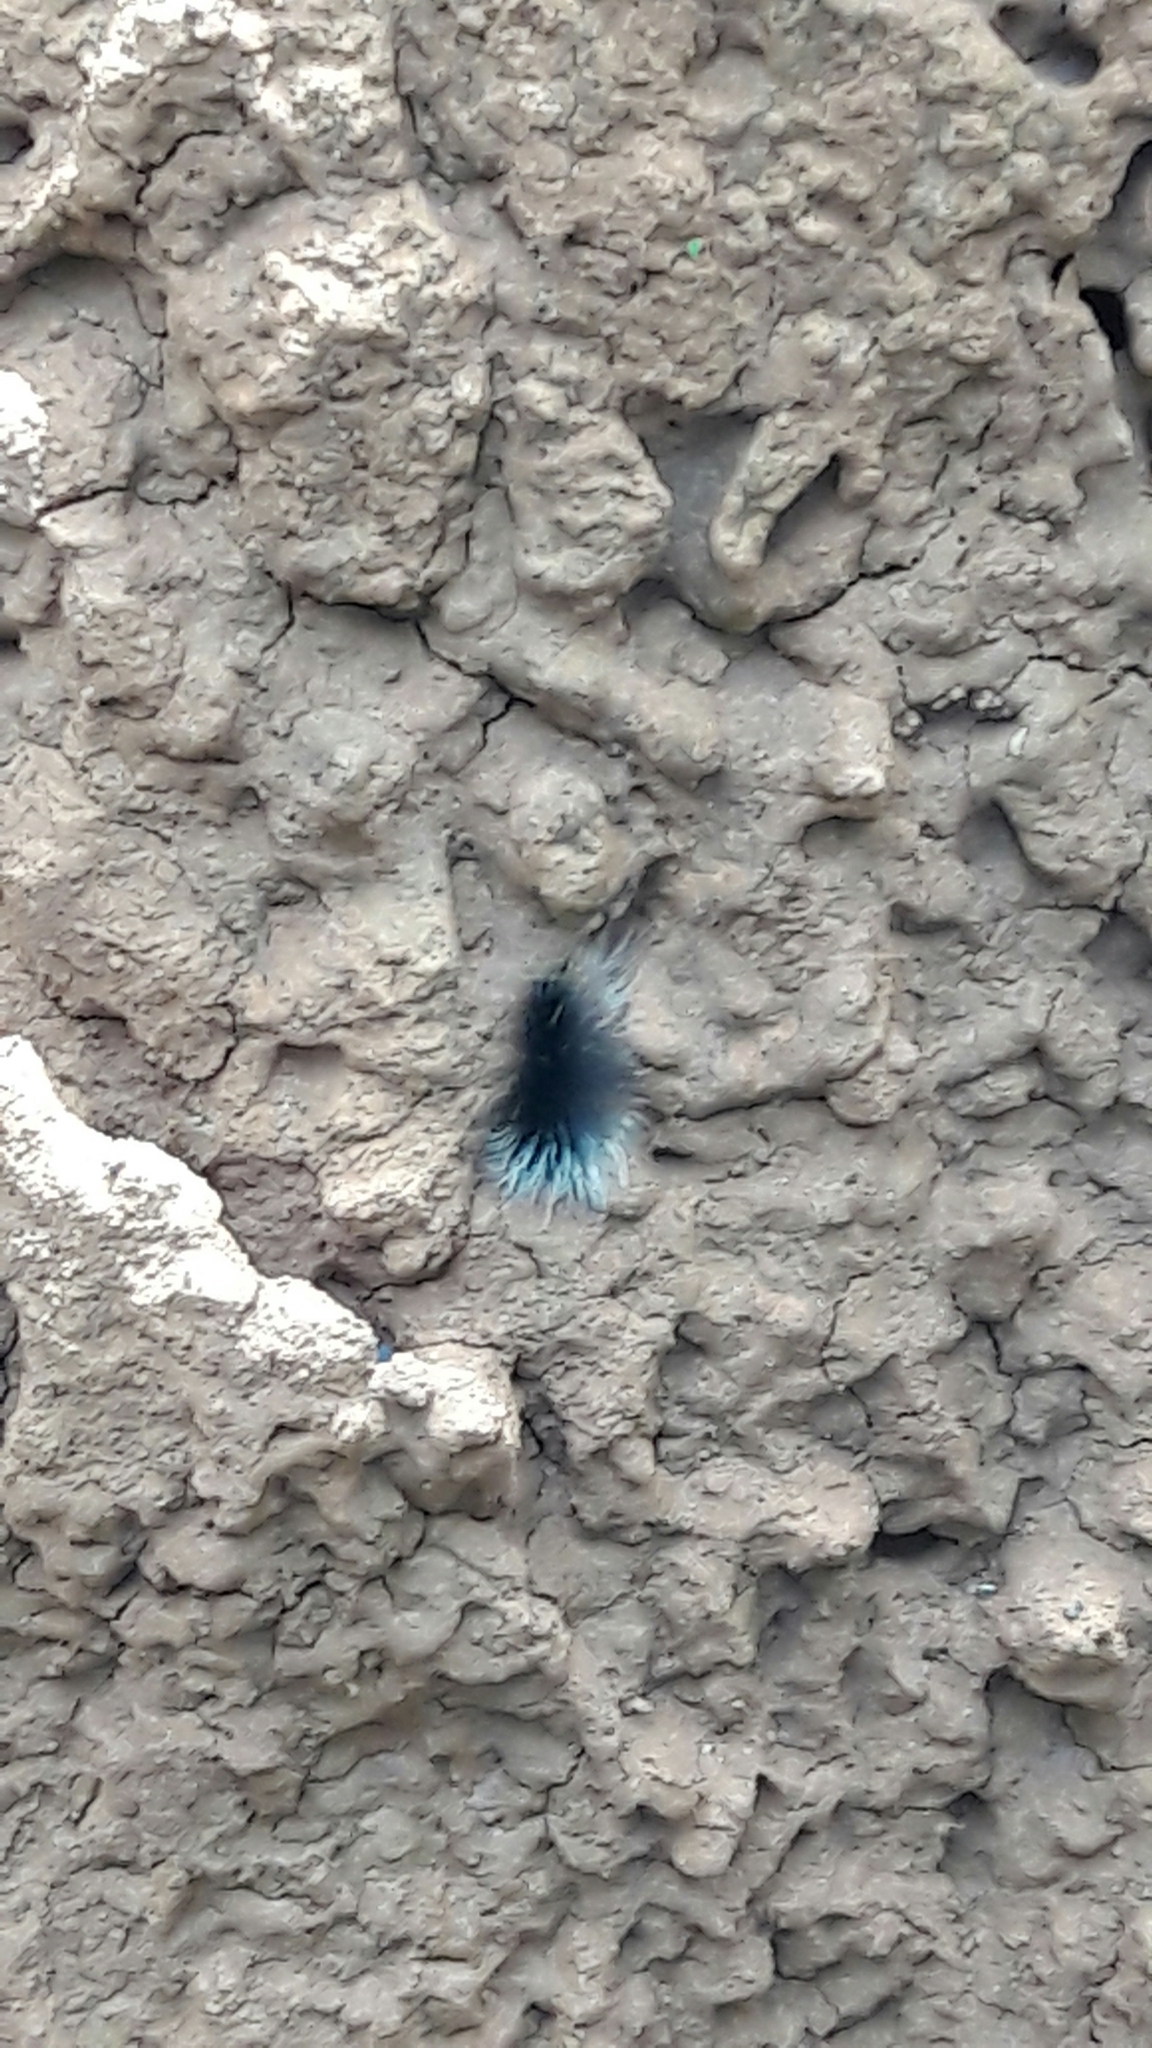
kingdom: Animalia
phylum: Arthropoda
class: Insecta
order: Lepidoptera
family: Erebidae
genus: Apistosia
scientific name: Apistosia judas
